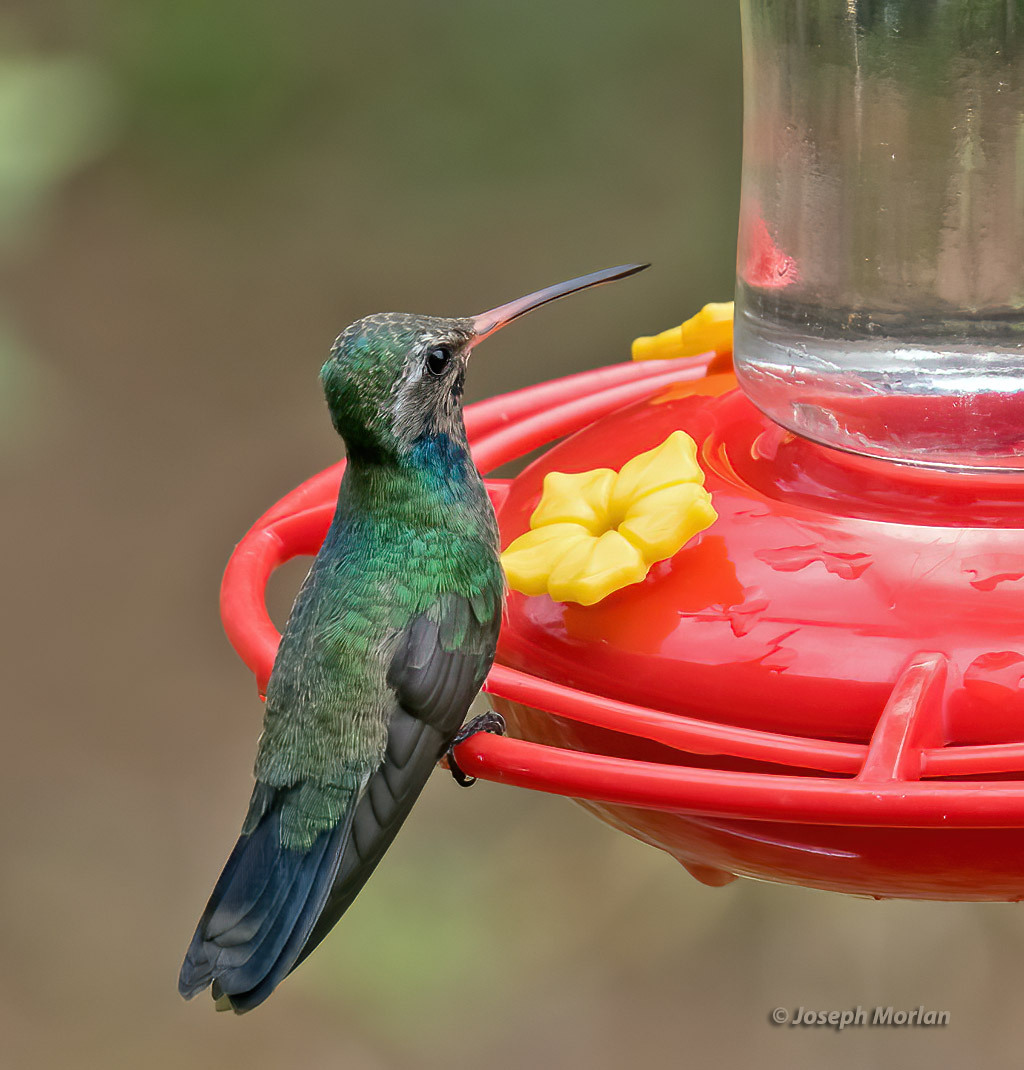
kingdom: Animalia
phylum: Chordata
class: Aves
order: Apodiformes
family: Trochilidae
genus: Cynanthus
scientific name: Cynanthus latirostris
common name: Broad-billed hummingbird
